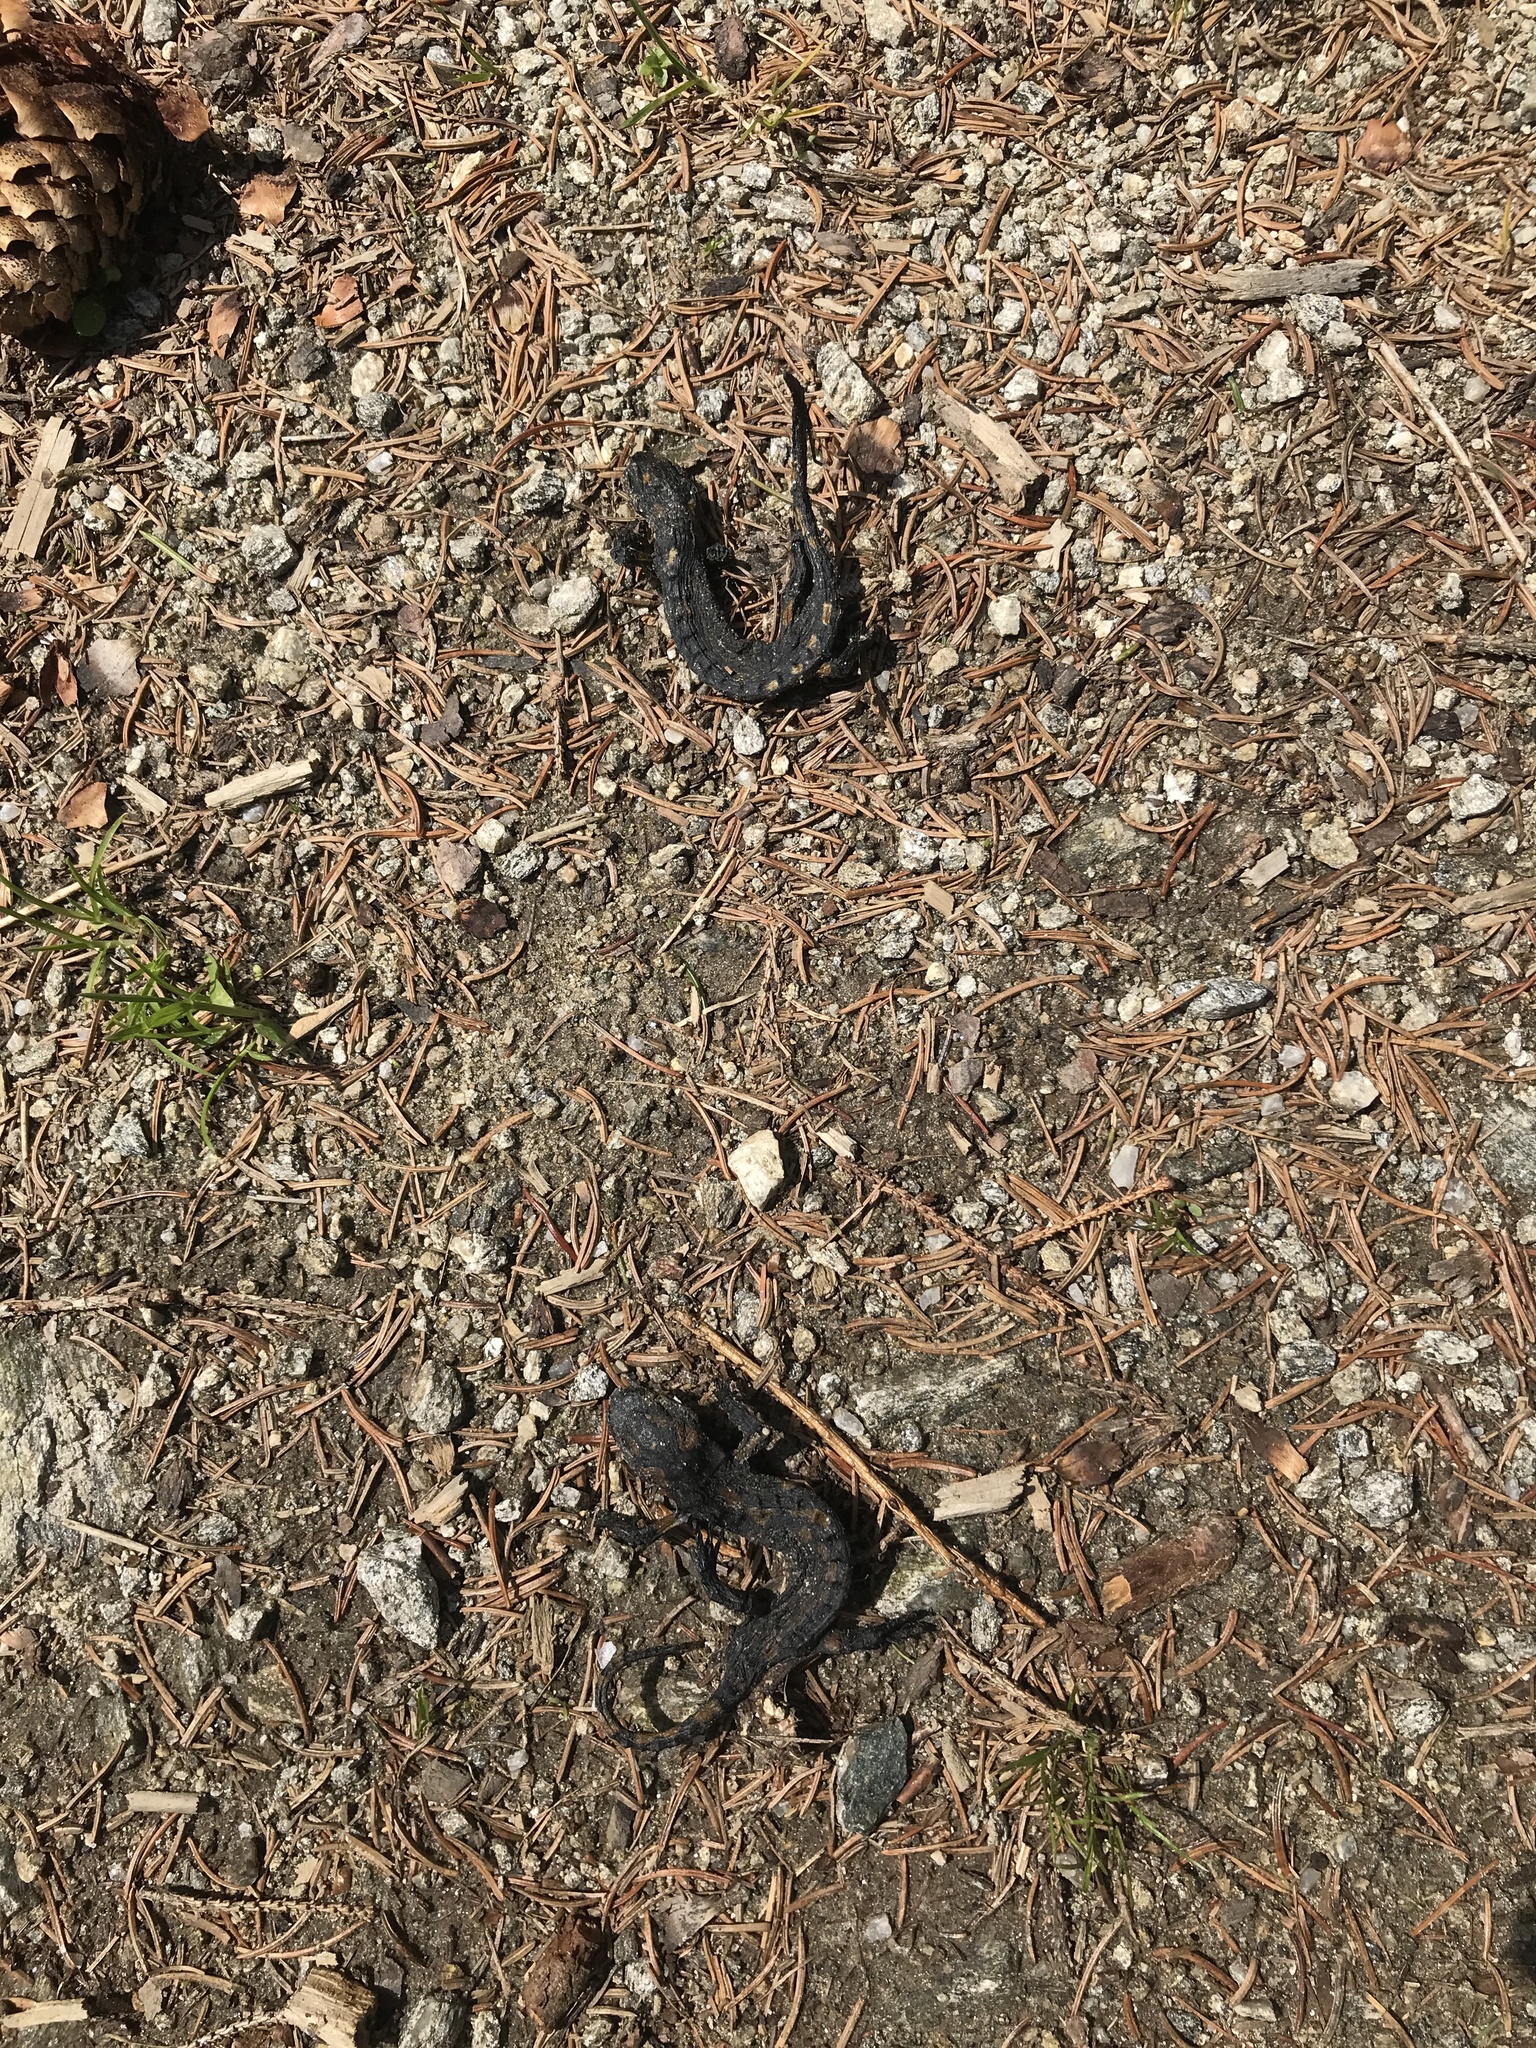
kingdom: Animalia
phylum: Chordata
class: Amphibia
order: Caudata
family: Salamandridae
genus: Salamandra
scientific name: Salamandra salamandra
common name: Fire salamander
